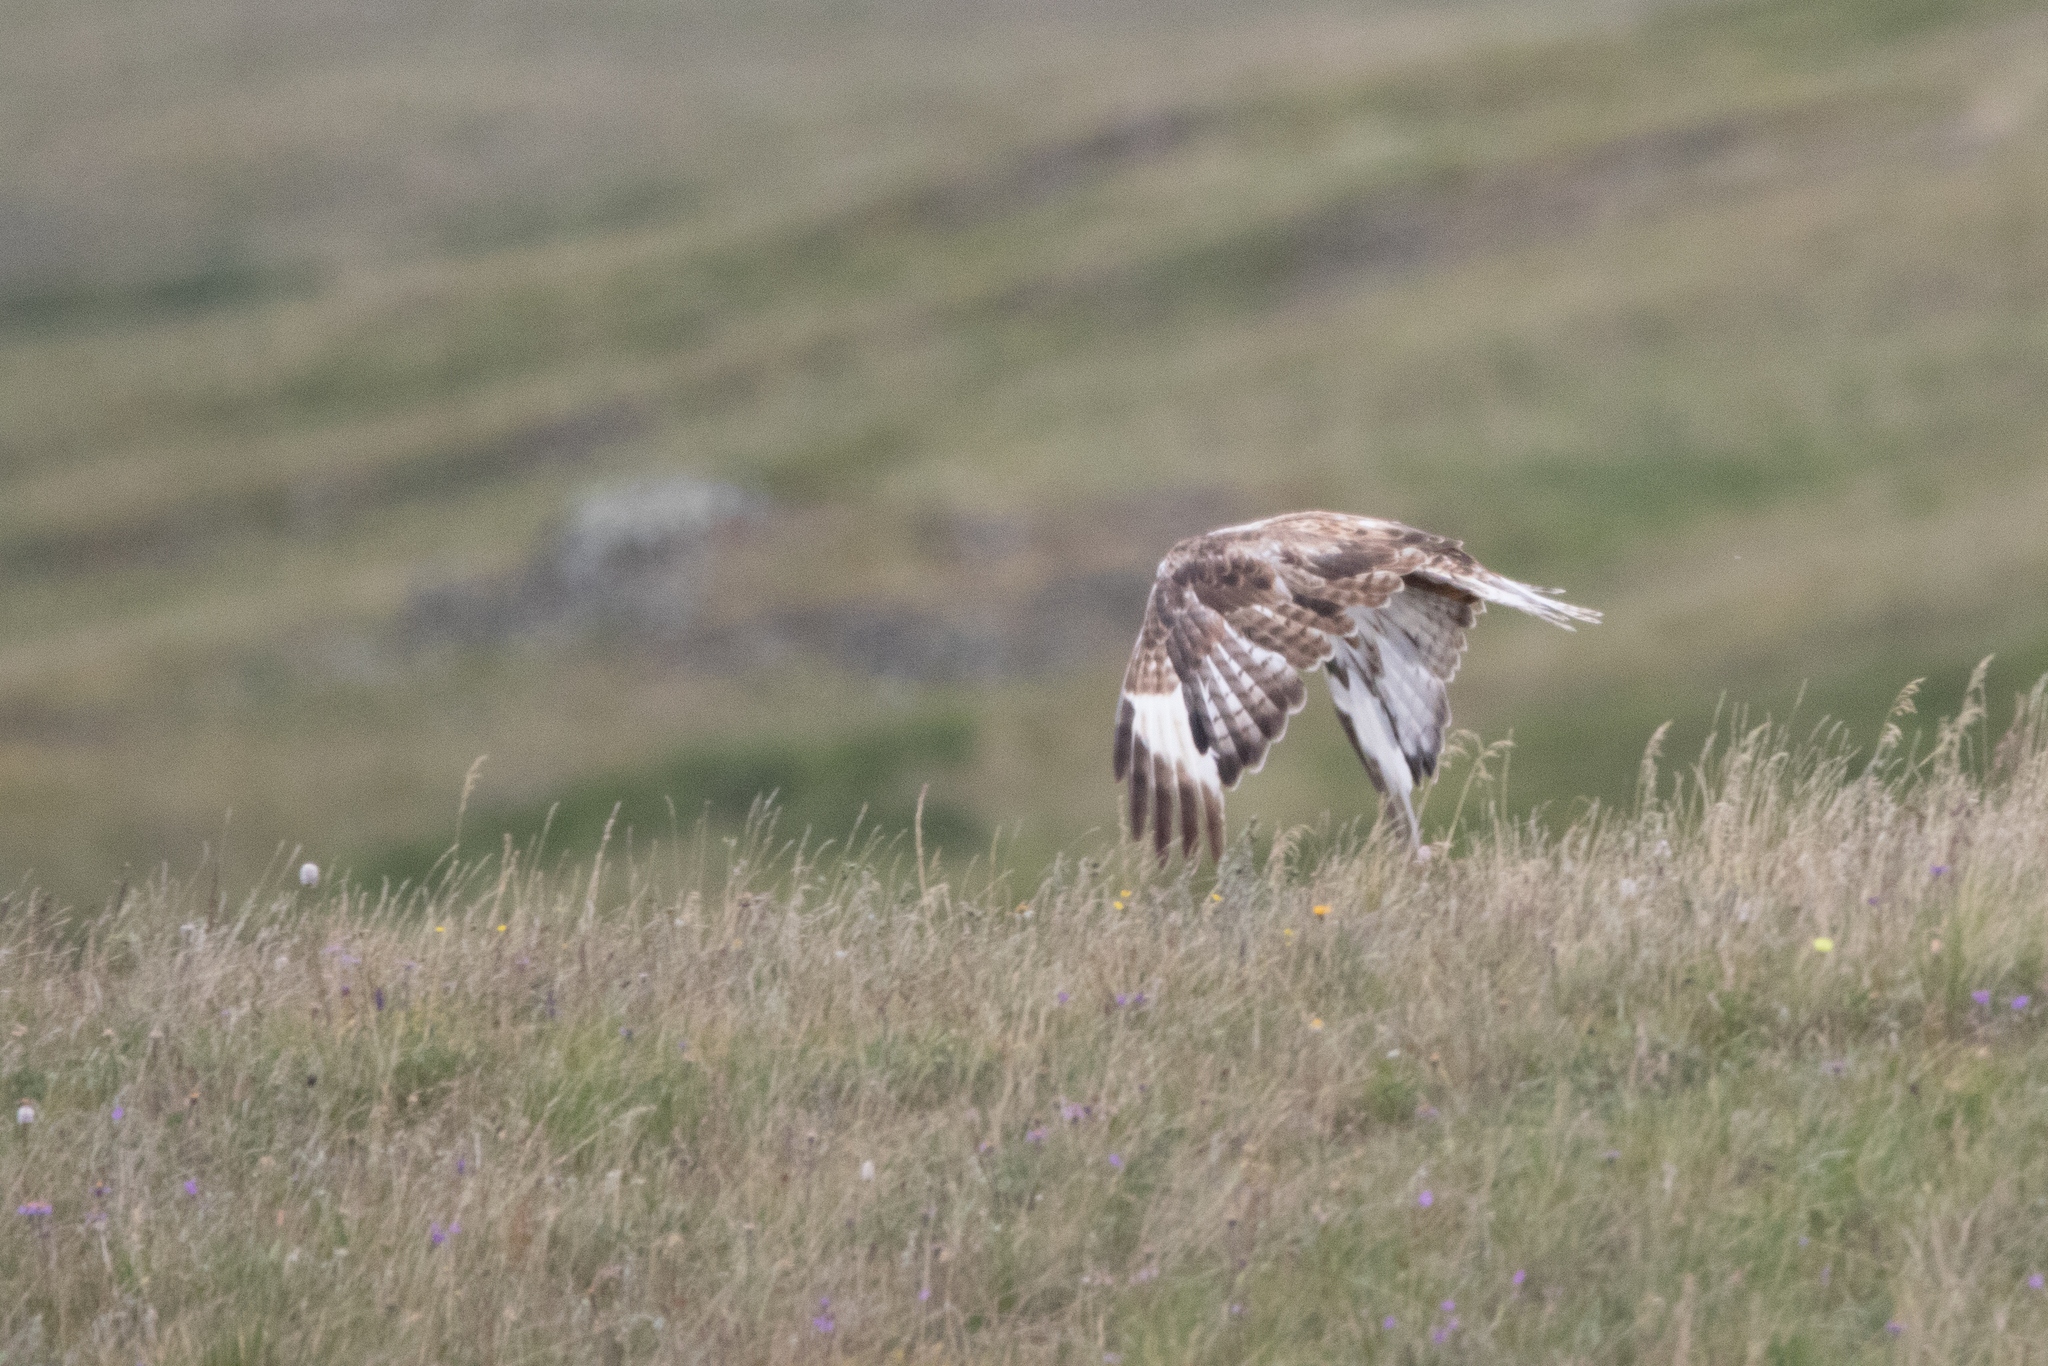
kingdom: Animalia
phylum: Chordata
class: Aves
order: Accipitriformes
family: Accipitridae
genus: Buteo
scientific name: Buteo hemilasius
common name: Upland buzzard
